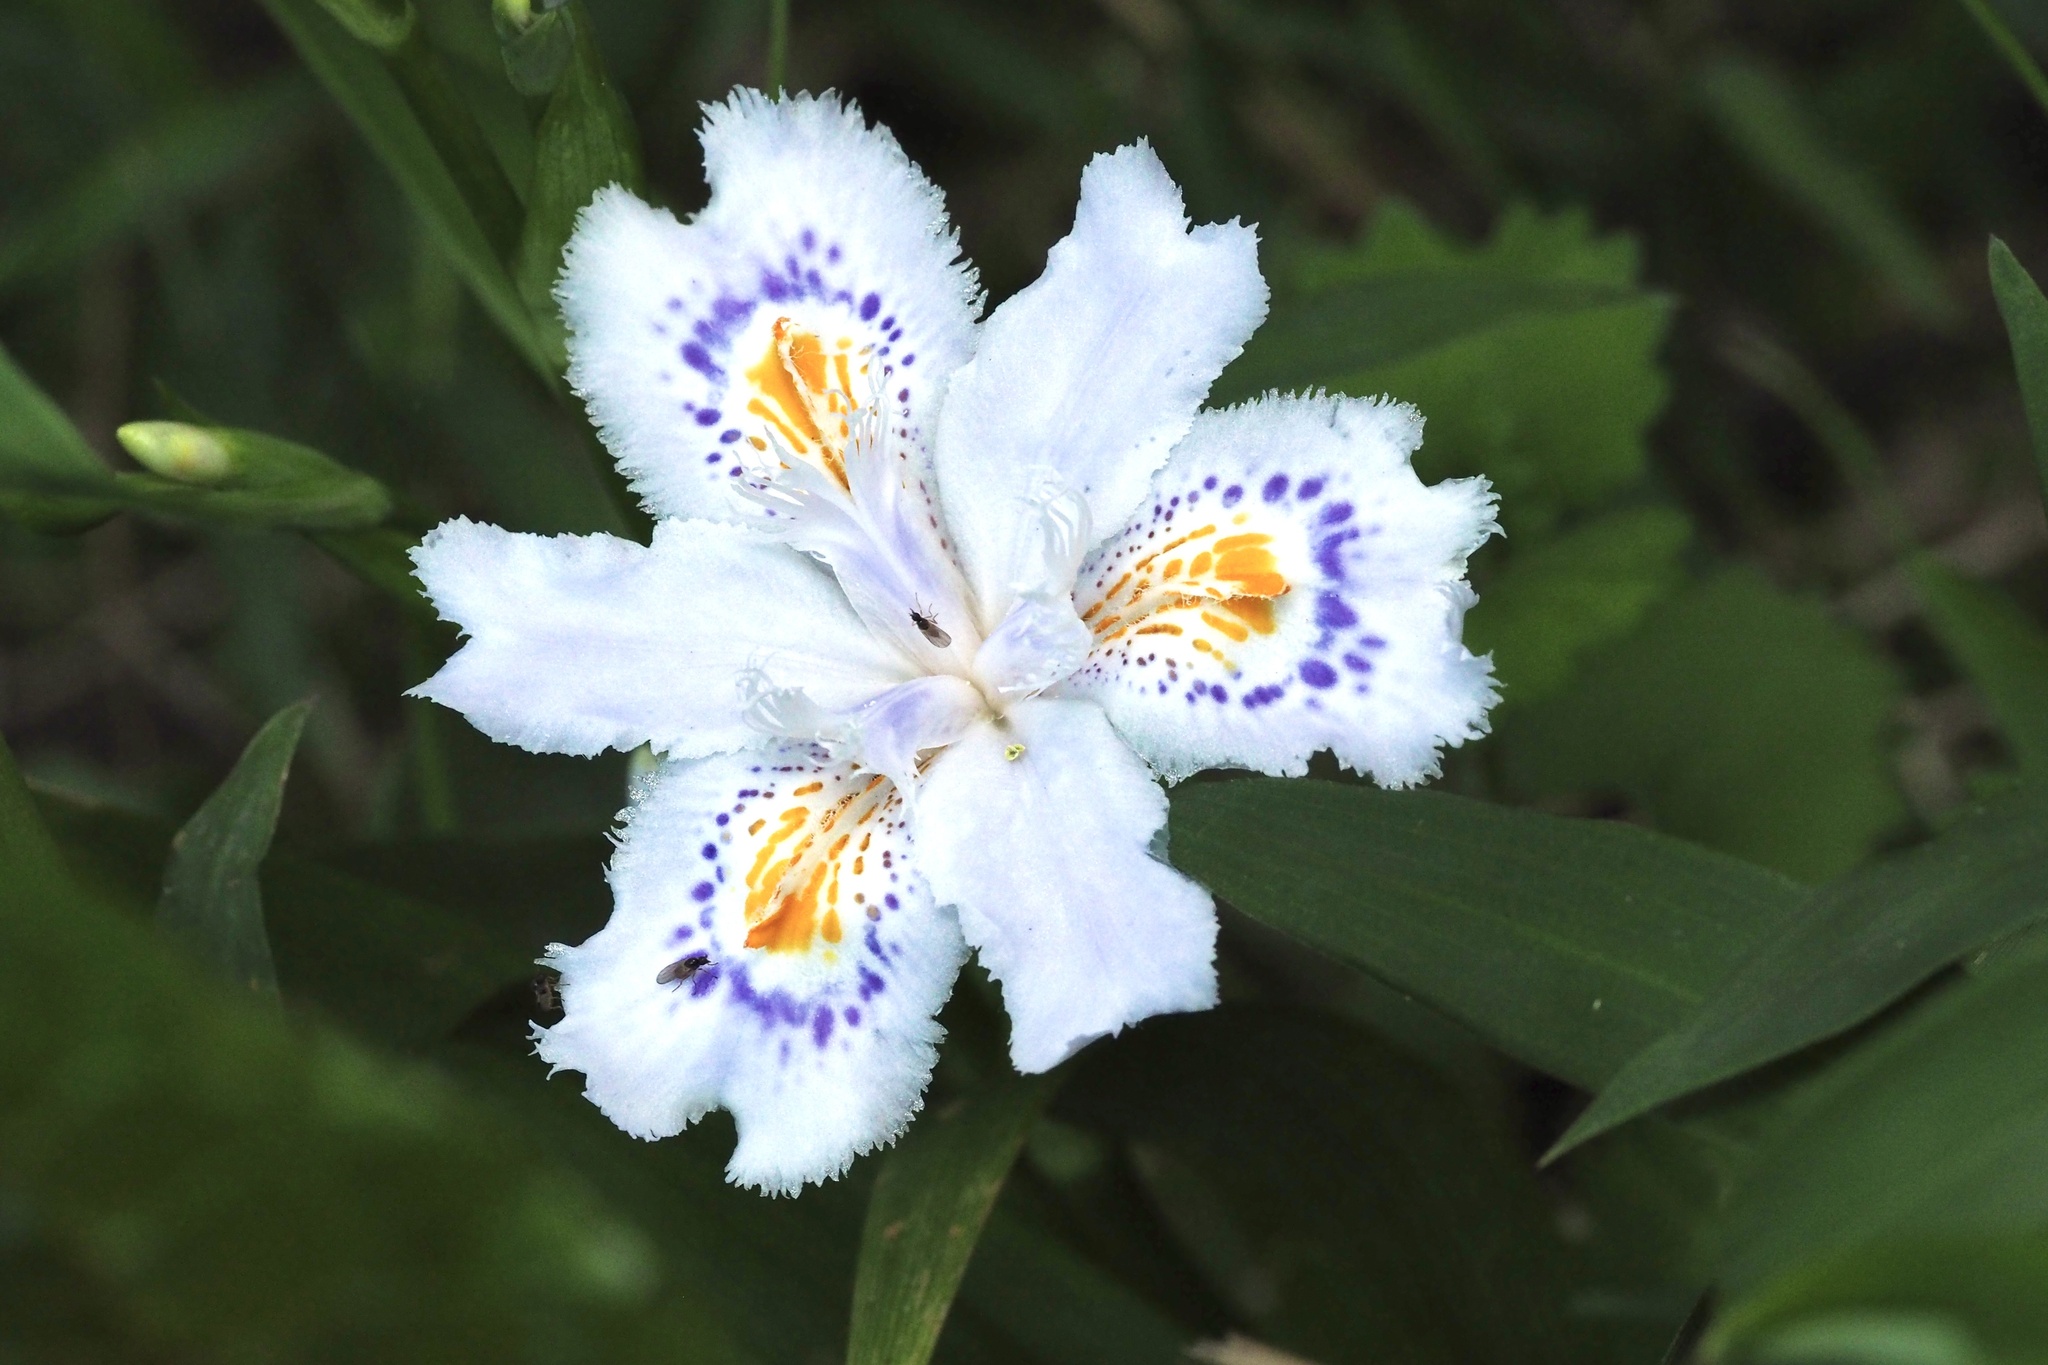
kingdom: Plantae
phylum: Tracheophyta
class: Liliopsida
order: Asparagales
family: Iridaceae
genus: Iris
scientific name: Iris japonica
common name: Butterfly-flower
